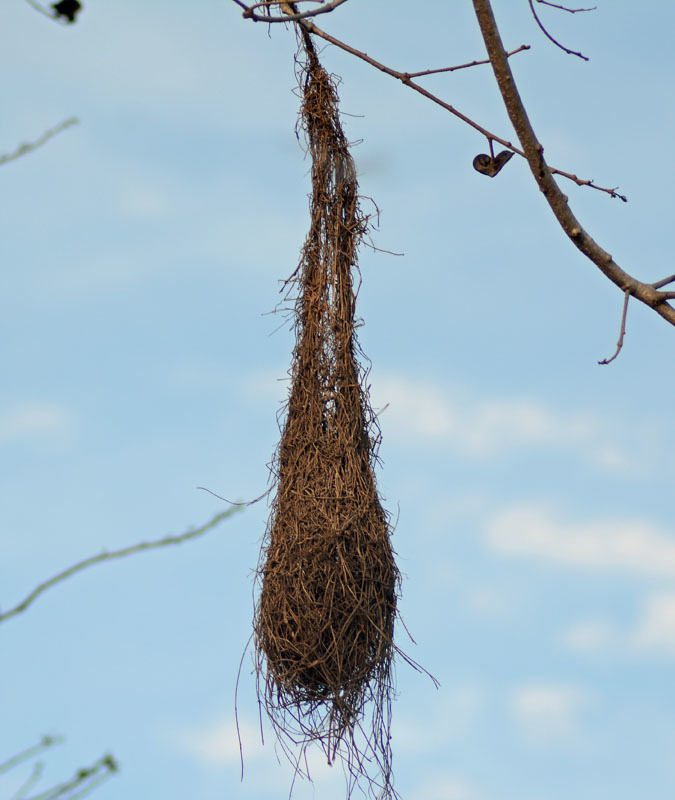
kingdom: Animalia
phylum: Chordata
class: Aves
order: Passeriformes
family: Icteridae
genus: Cacicus
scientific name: Cacicus melanicterus
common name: Yellow-winged cacique
